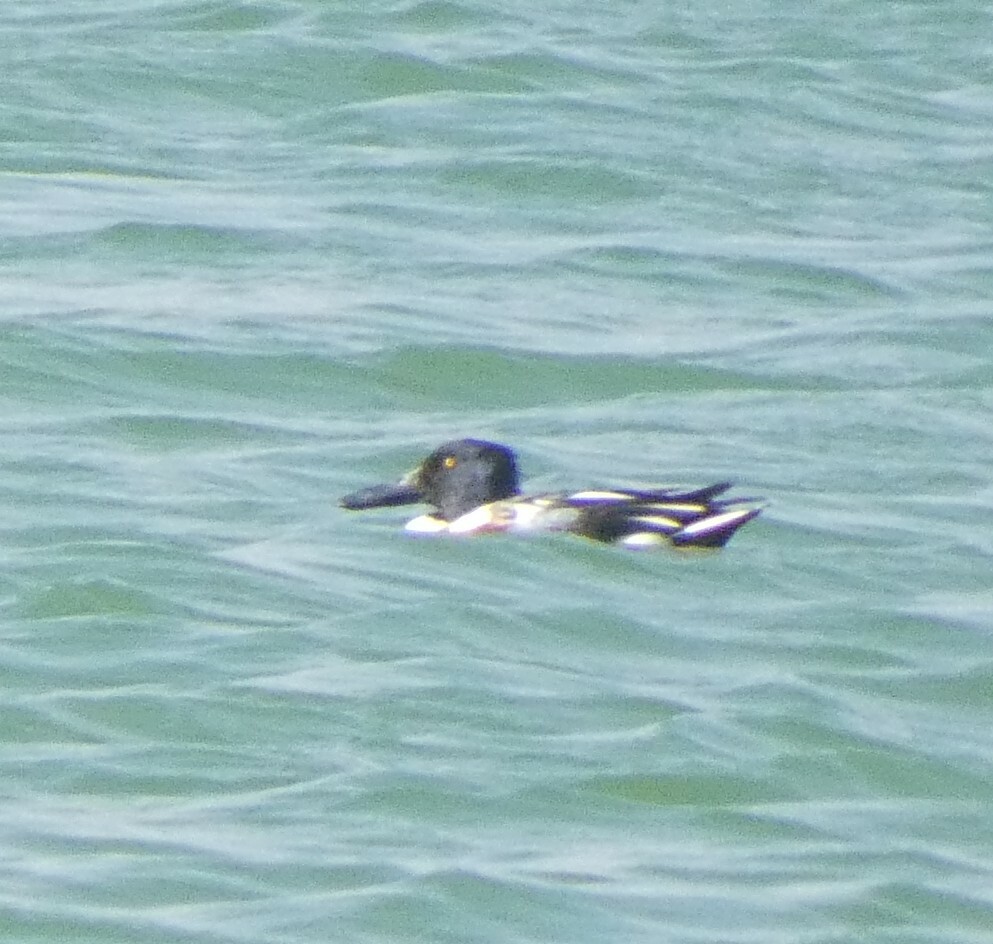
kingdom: Animalia
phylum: Chordata
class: Aves
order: Anseriformes
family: Anatidae
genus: Spatula
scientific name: Spatula clypeata
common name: Northern shoveler
